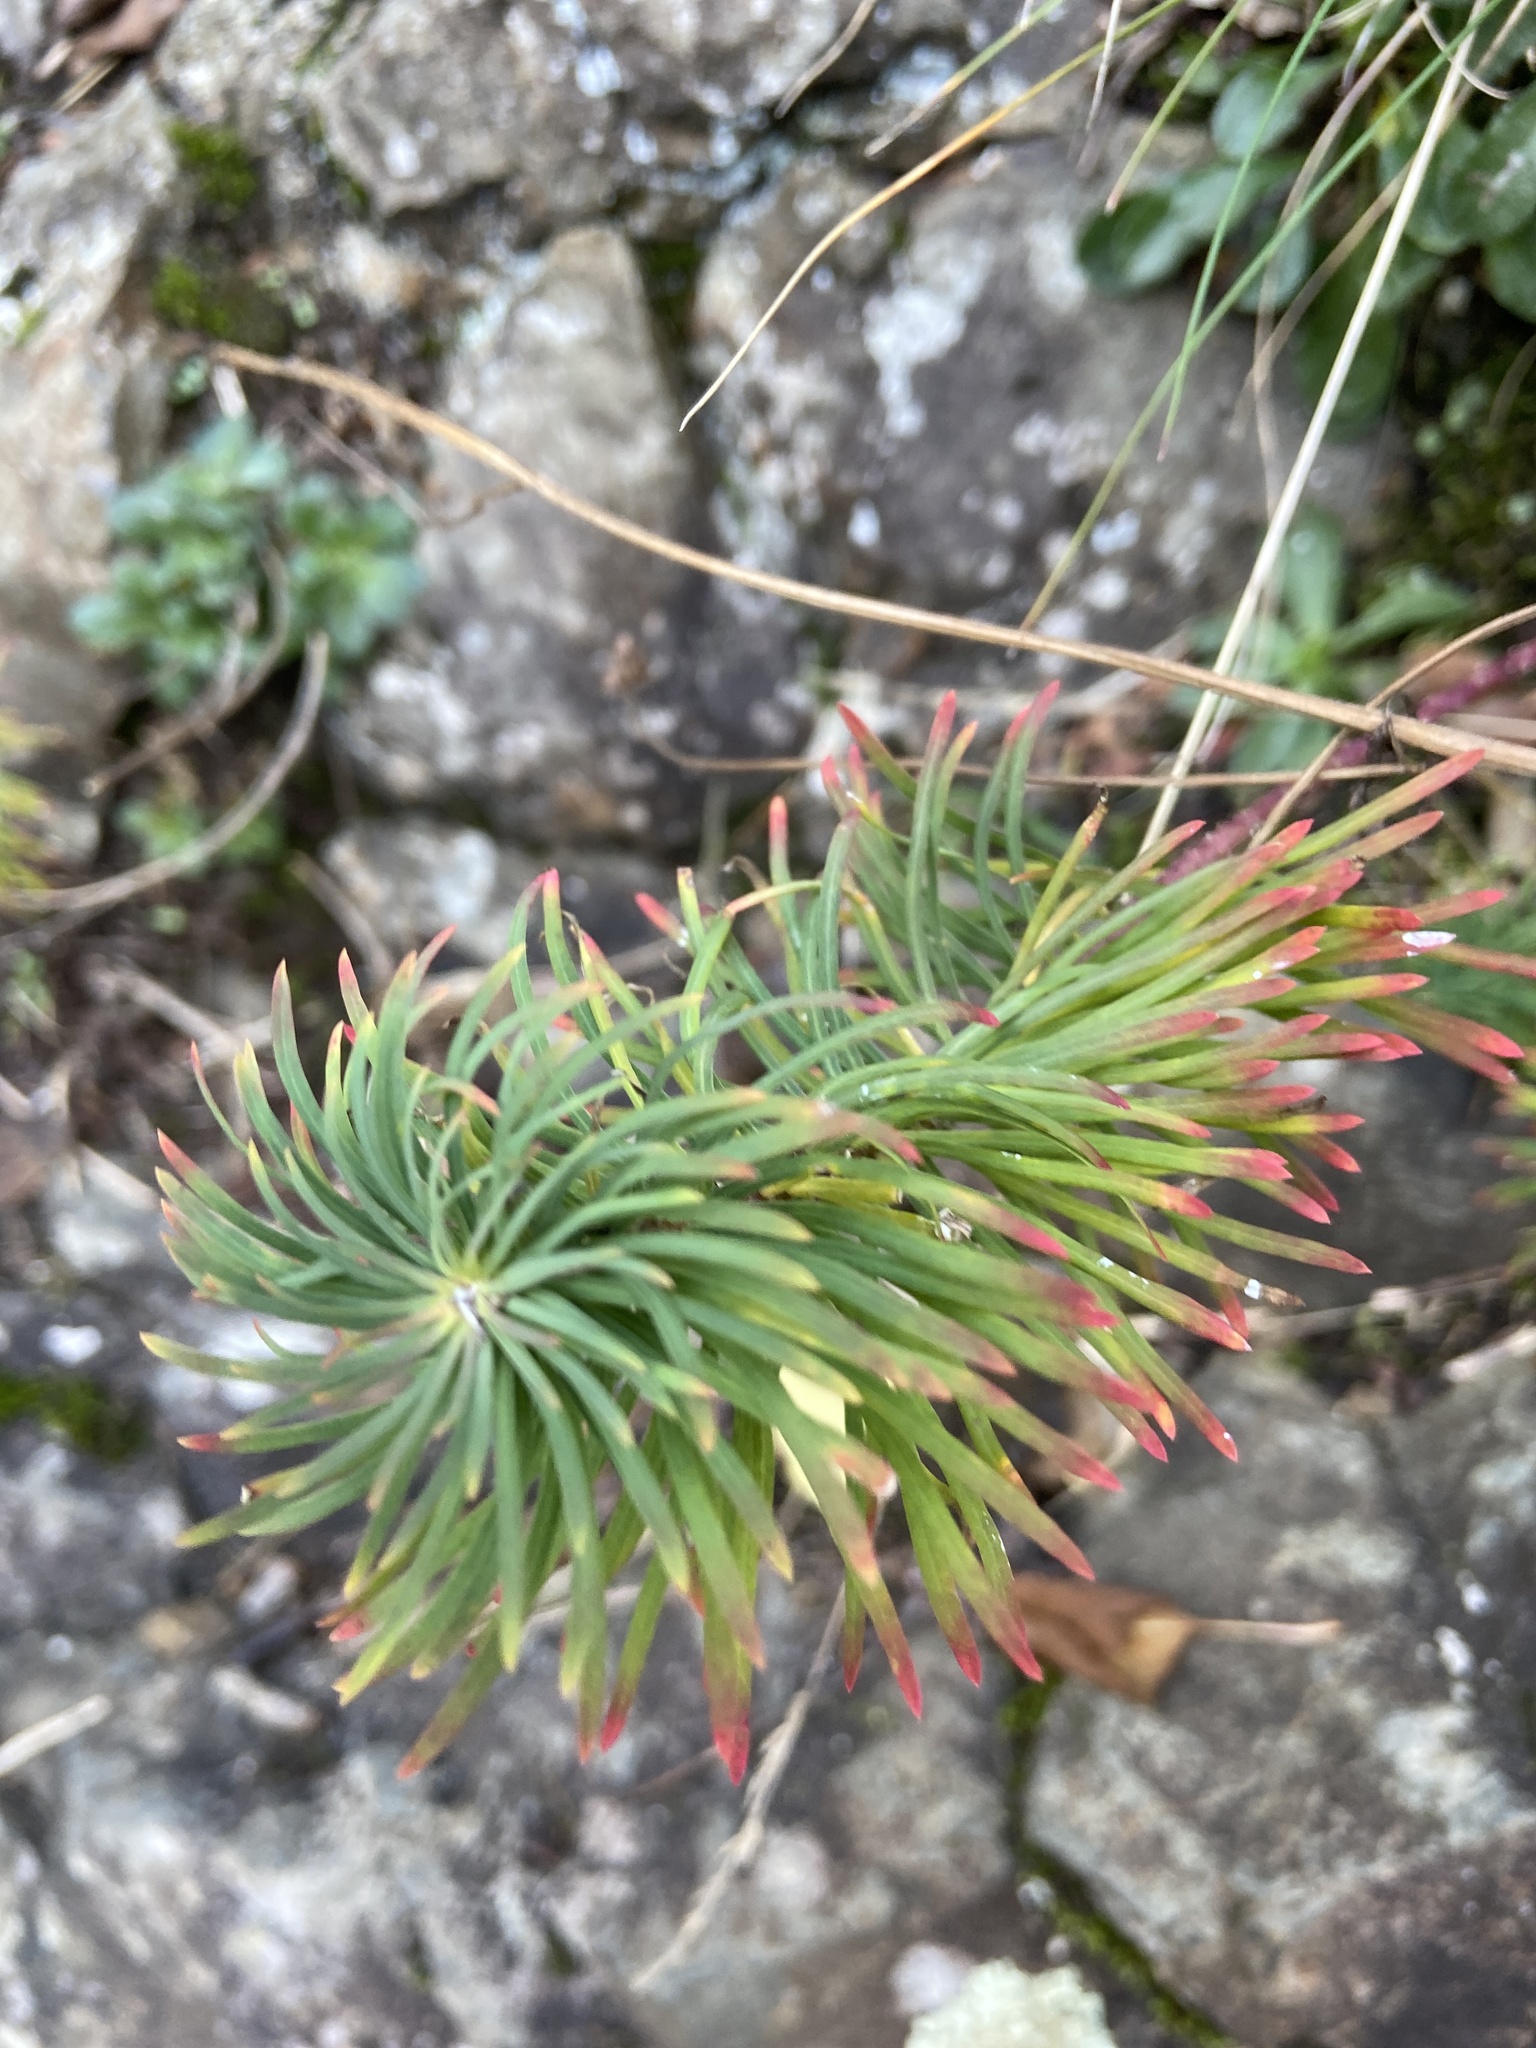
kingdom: Plantae
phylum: Tracheophyta
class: Magnoliopsida
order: Malpighiales
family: Euphorbiaceae
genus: Euphorbia
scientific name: Euphorbia cyparissias
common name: Cypress spurge
